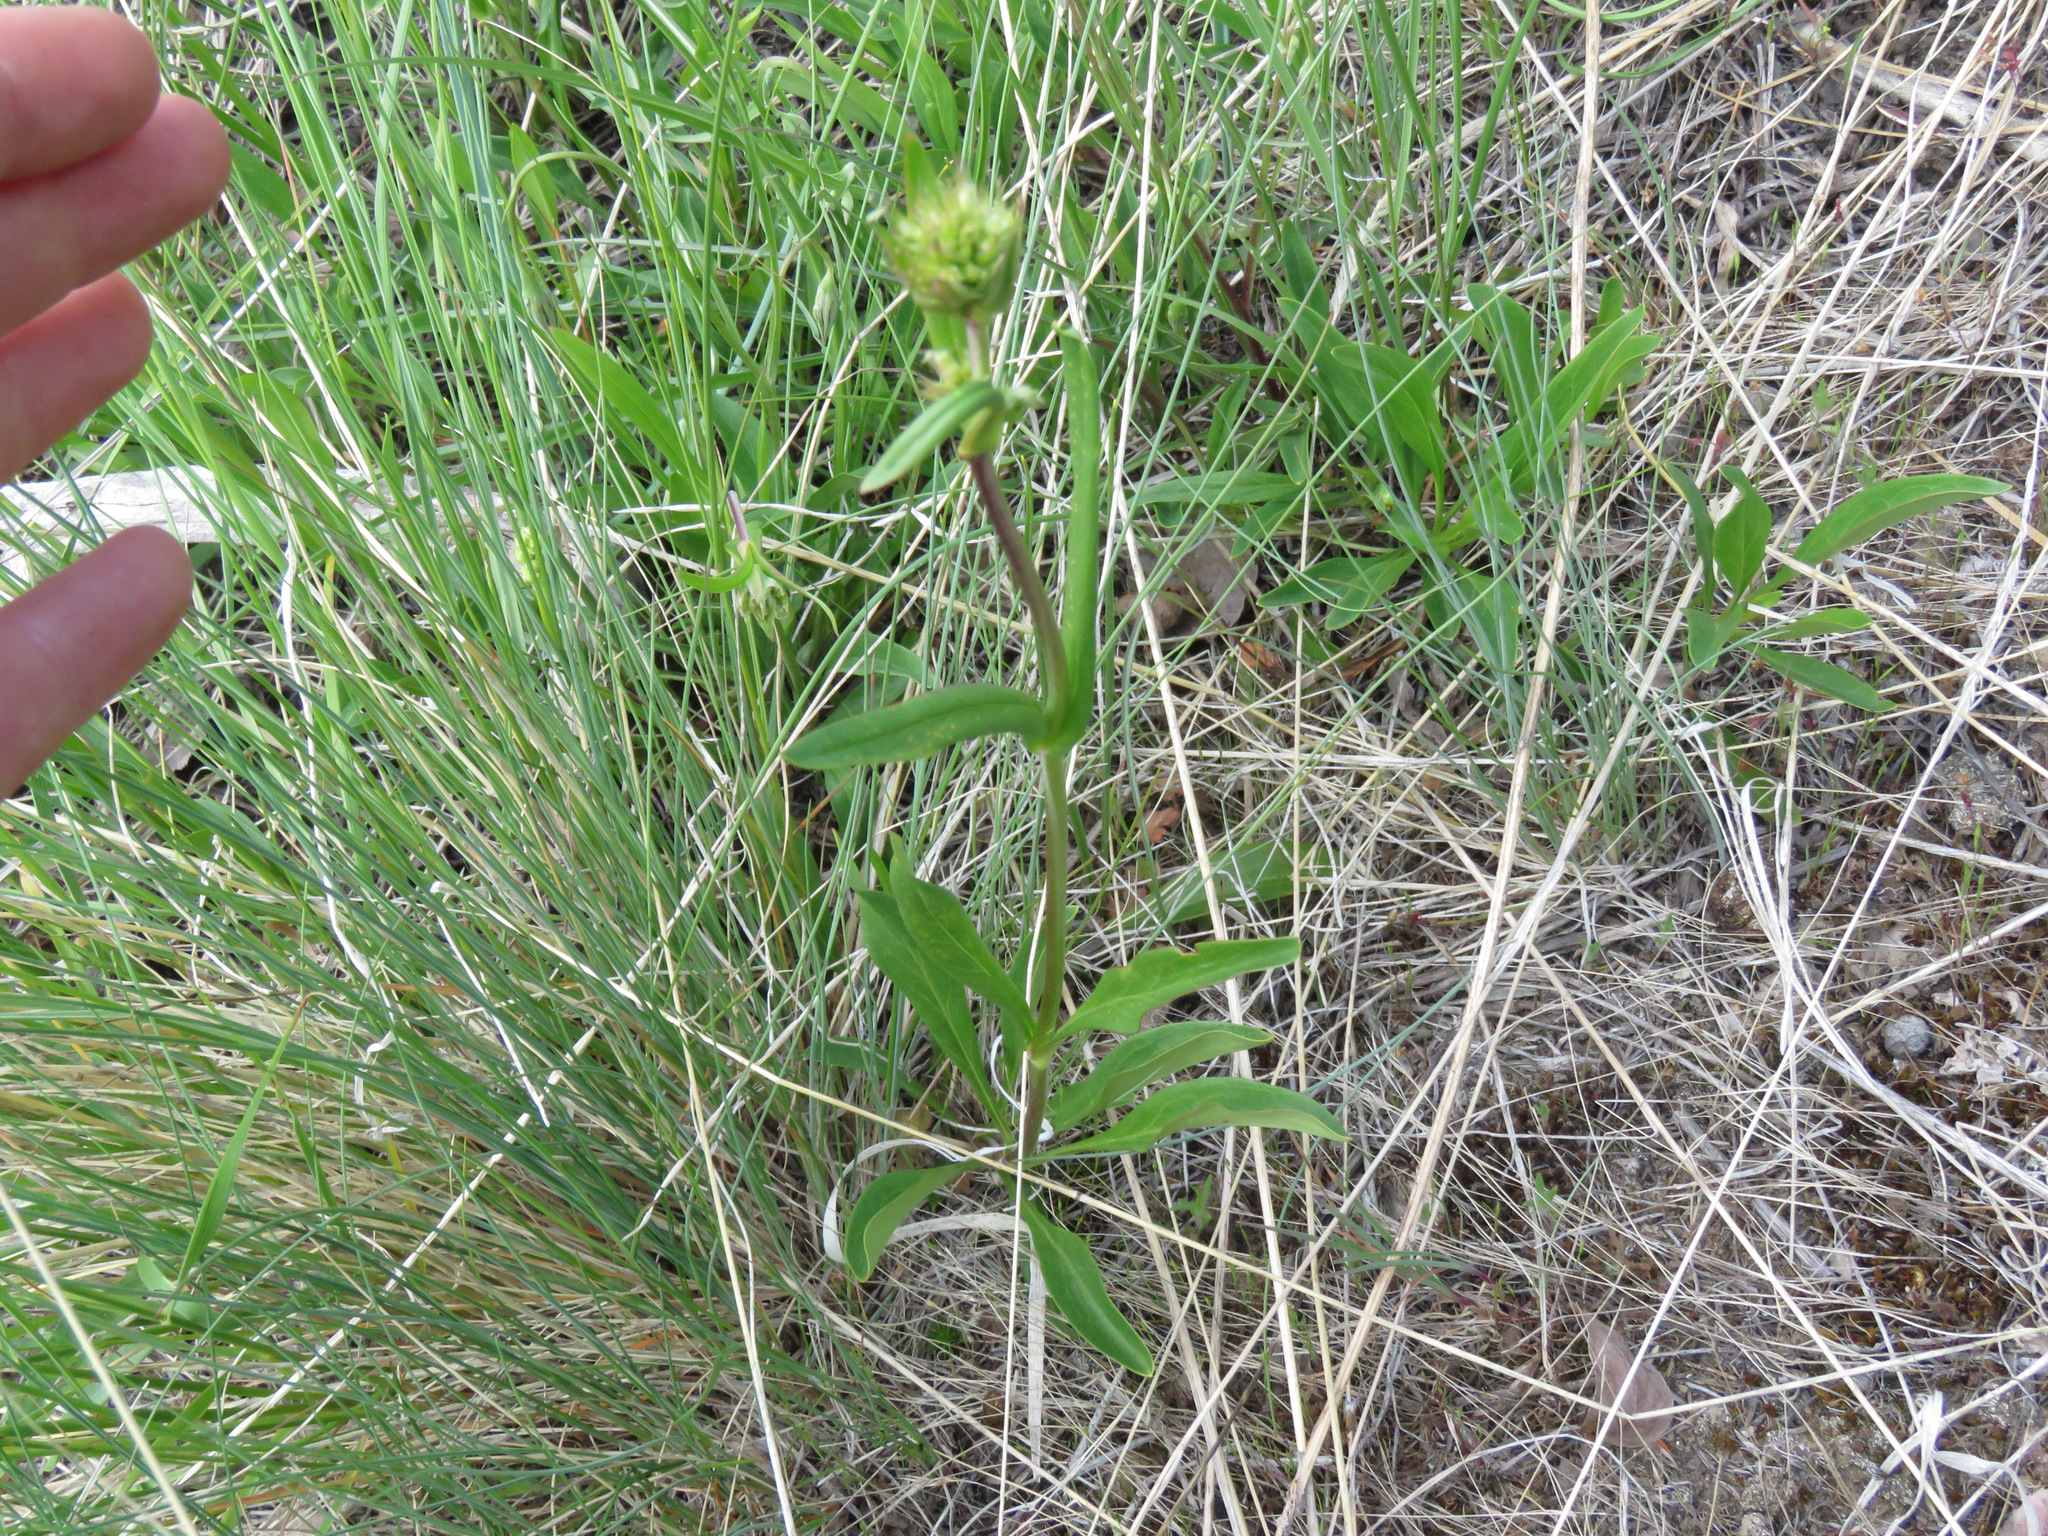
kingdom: Plantae
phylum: Tracheophyta
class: Magnoliopsida
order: Lamiales
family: Plantaginaceae
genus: Penstemon
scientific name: Penstemon confertus
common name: Lesser yellow beardtongue
